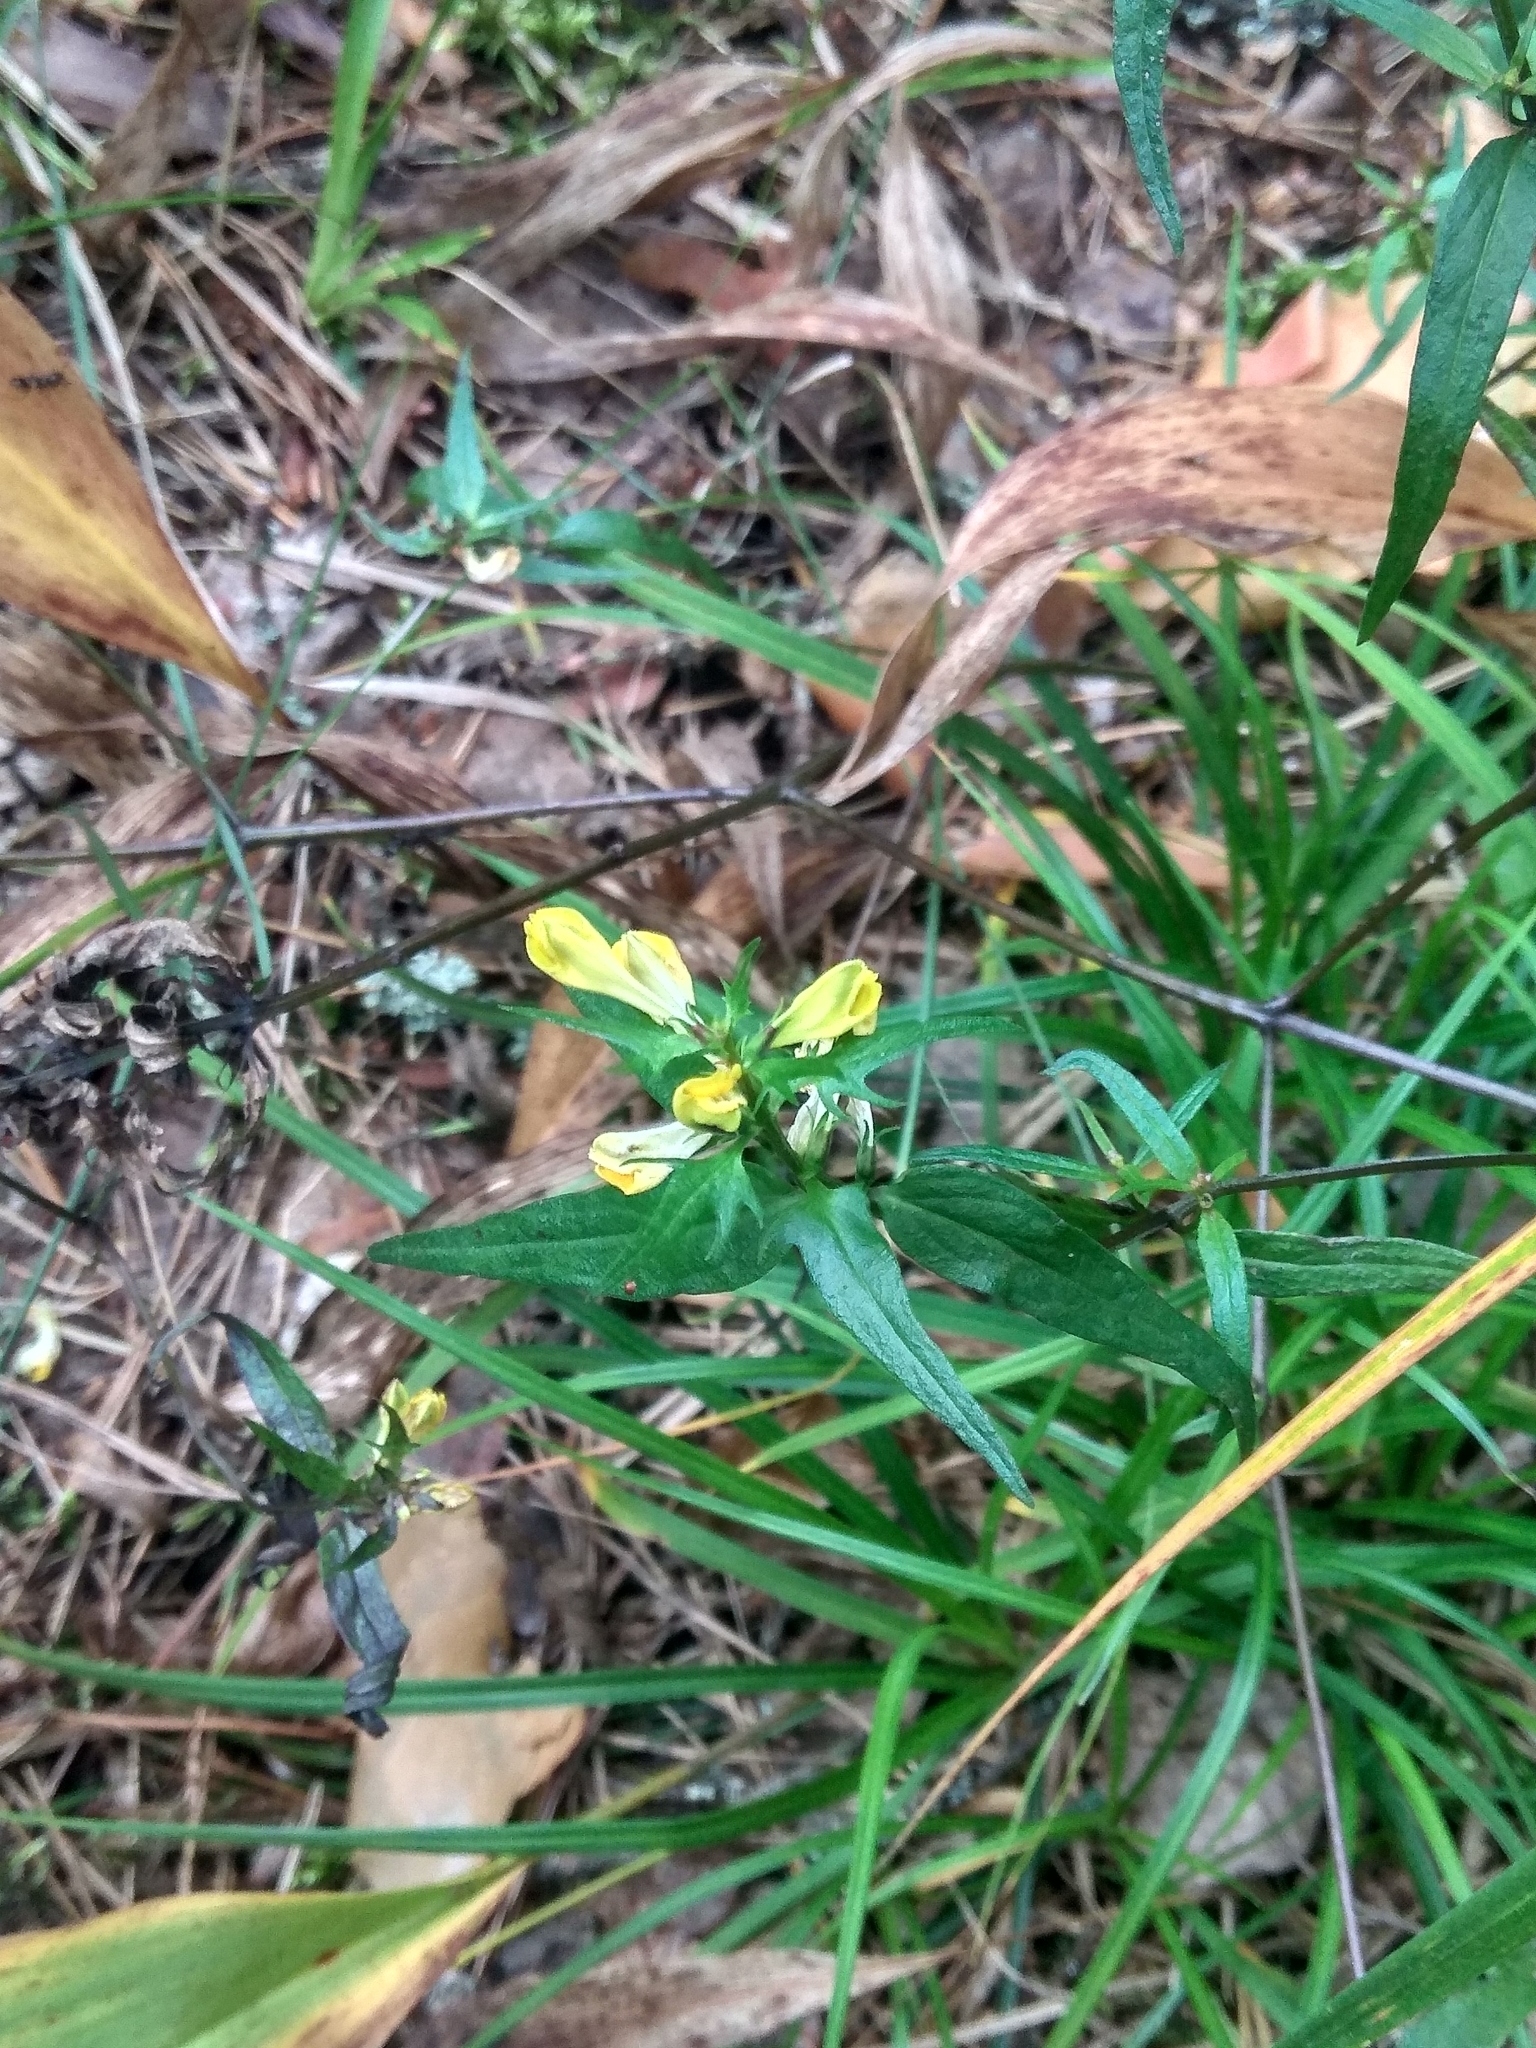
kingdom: Plantae
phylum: Tracheophyta
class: Magnoliopsida
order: Lamiales
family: Orobanchaceae
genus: Melampyrum
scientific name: Melampyrum pratense
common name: Common cow-wheat
